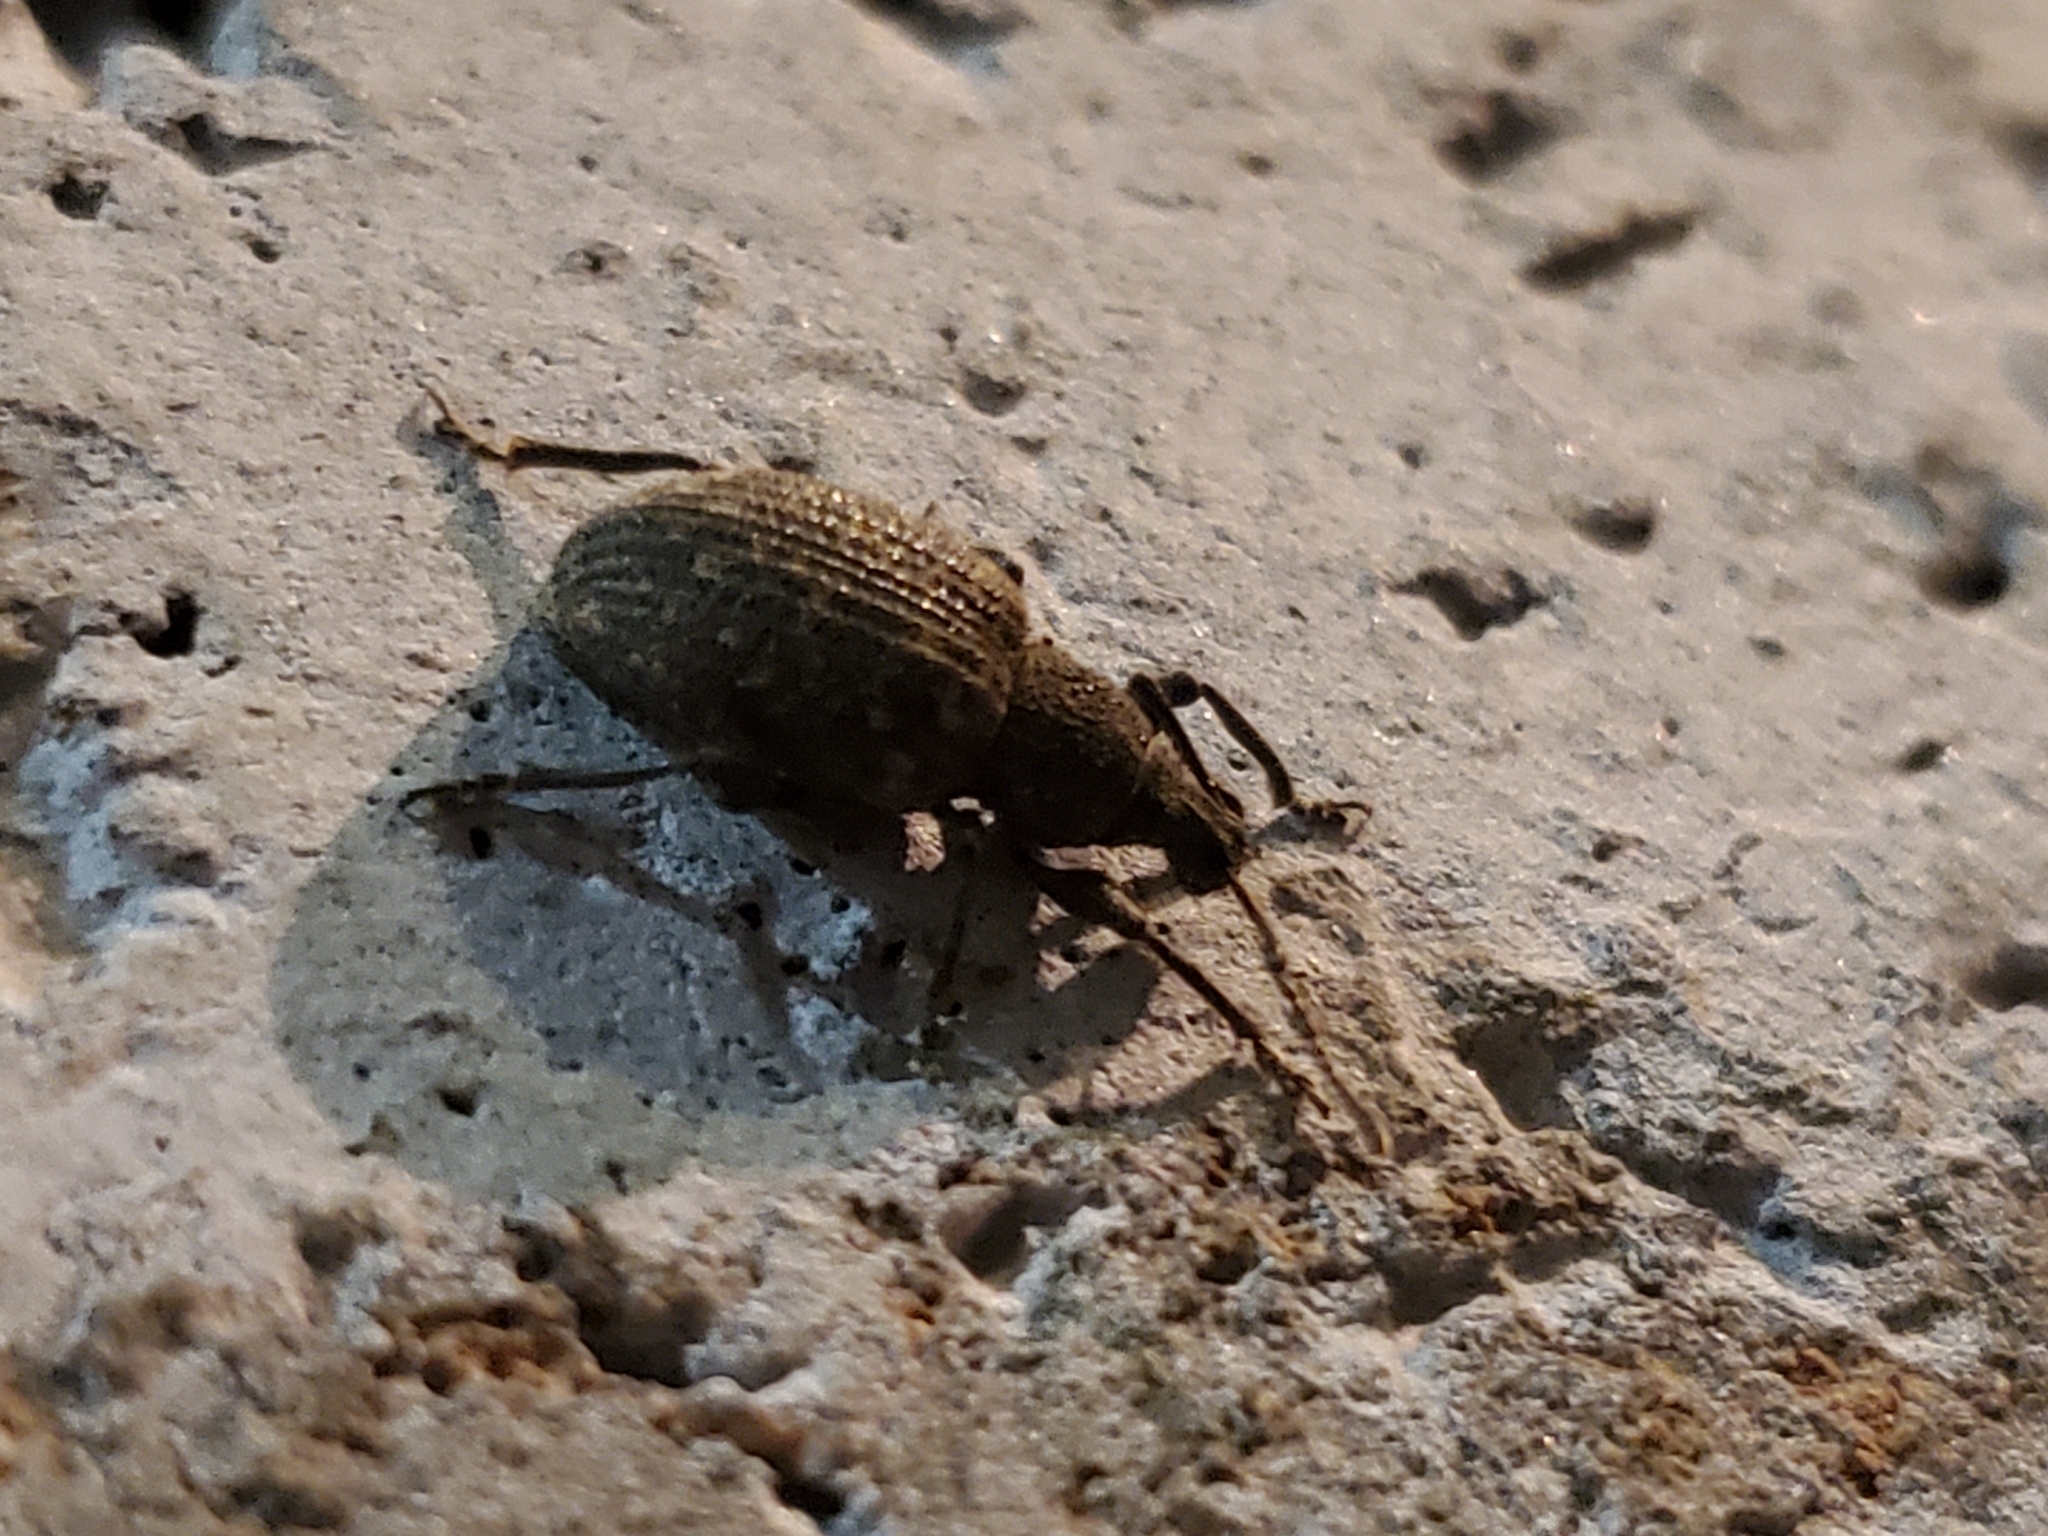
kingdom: Animalia
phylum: Arthropoda
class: Insecta
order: Coleoptera
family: Curculionidae
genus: Otiorhynchus
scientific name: Otiorhynchus sulcatus
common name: Black vine weevil
